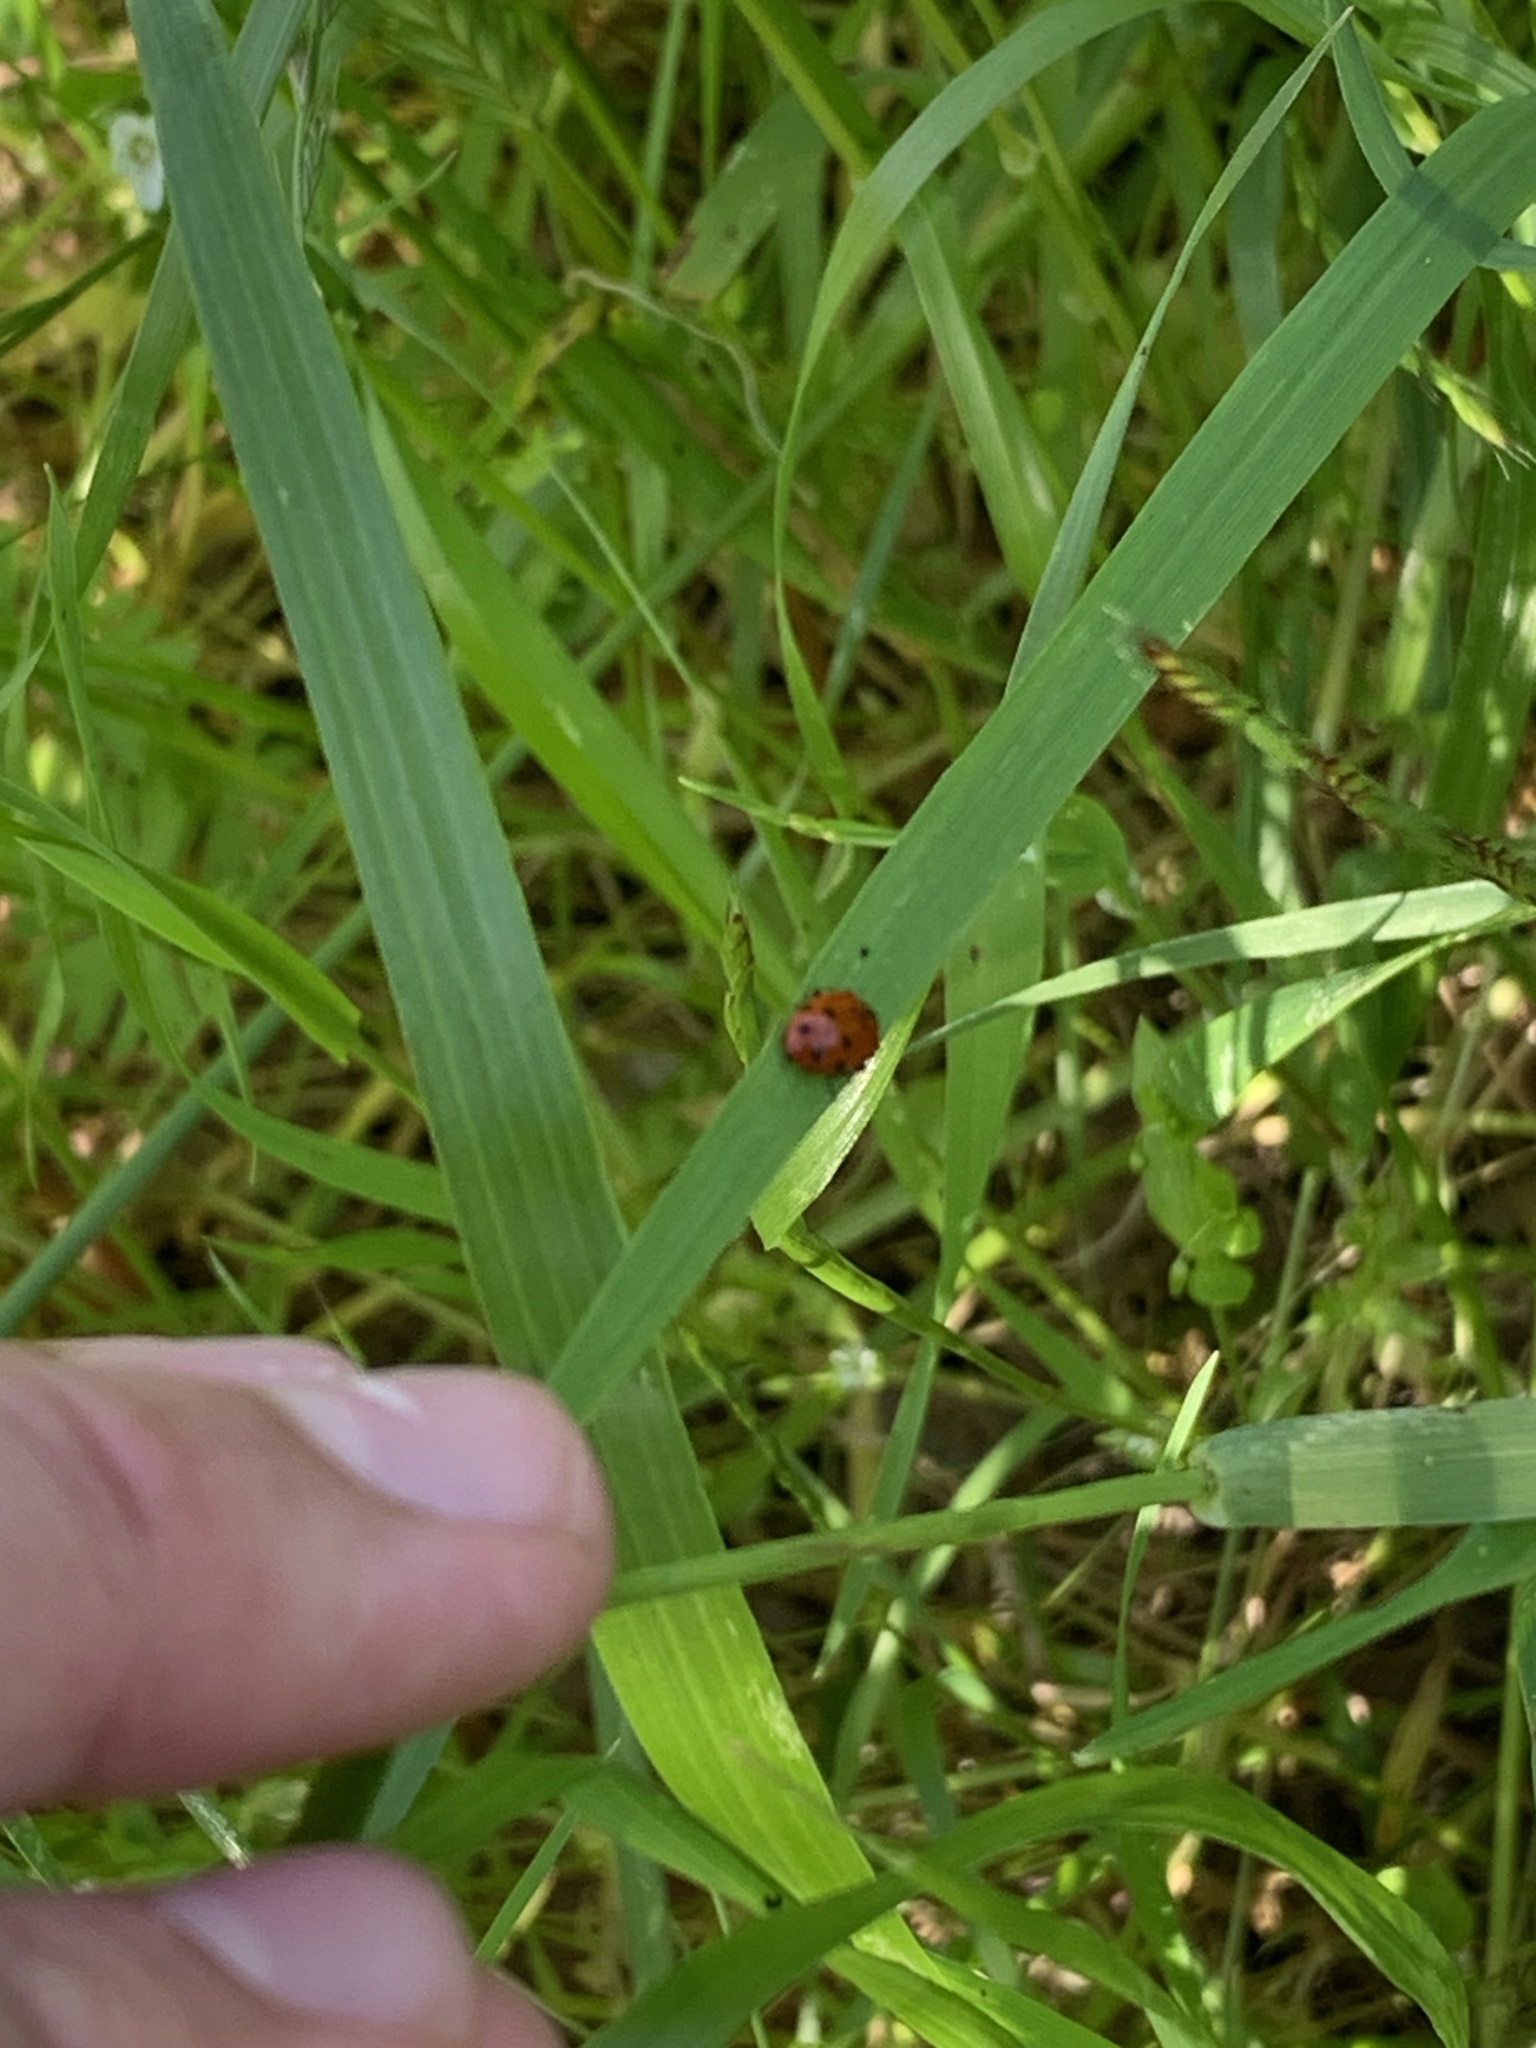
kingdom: Animalia
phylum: Arthropoda
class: Insecta
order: Coleoptera
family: Coccinellidae
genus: Hippodamia
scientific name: Hippodamia convergens
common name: Convergent lady beetle
